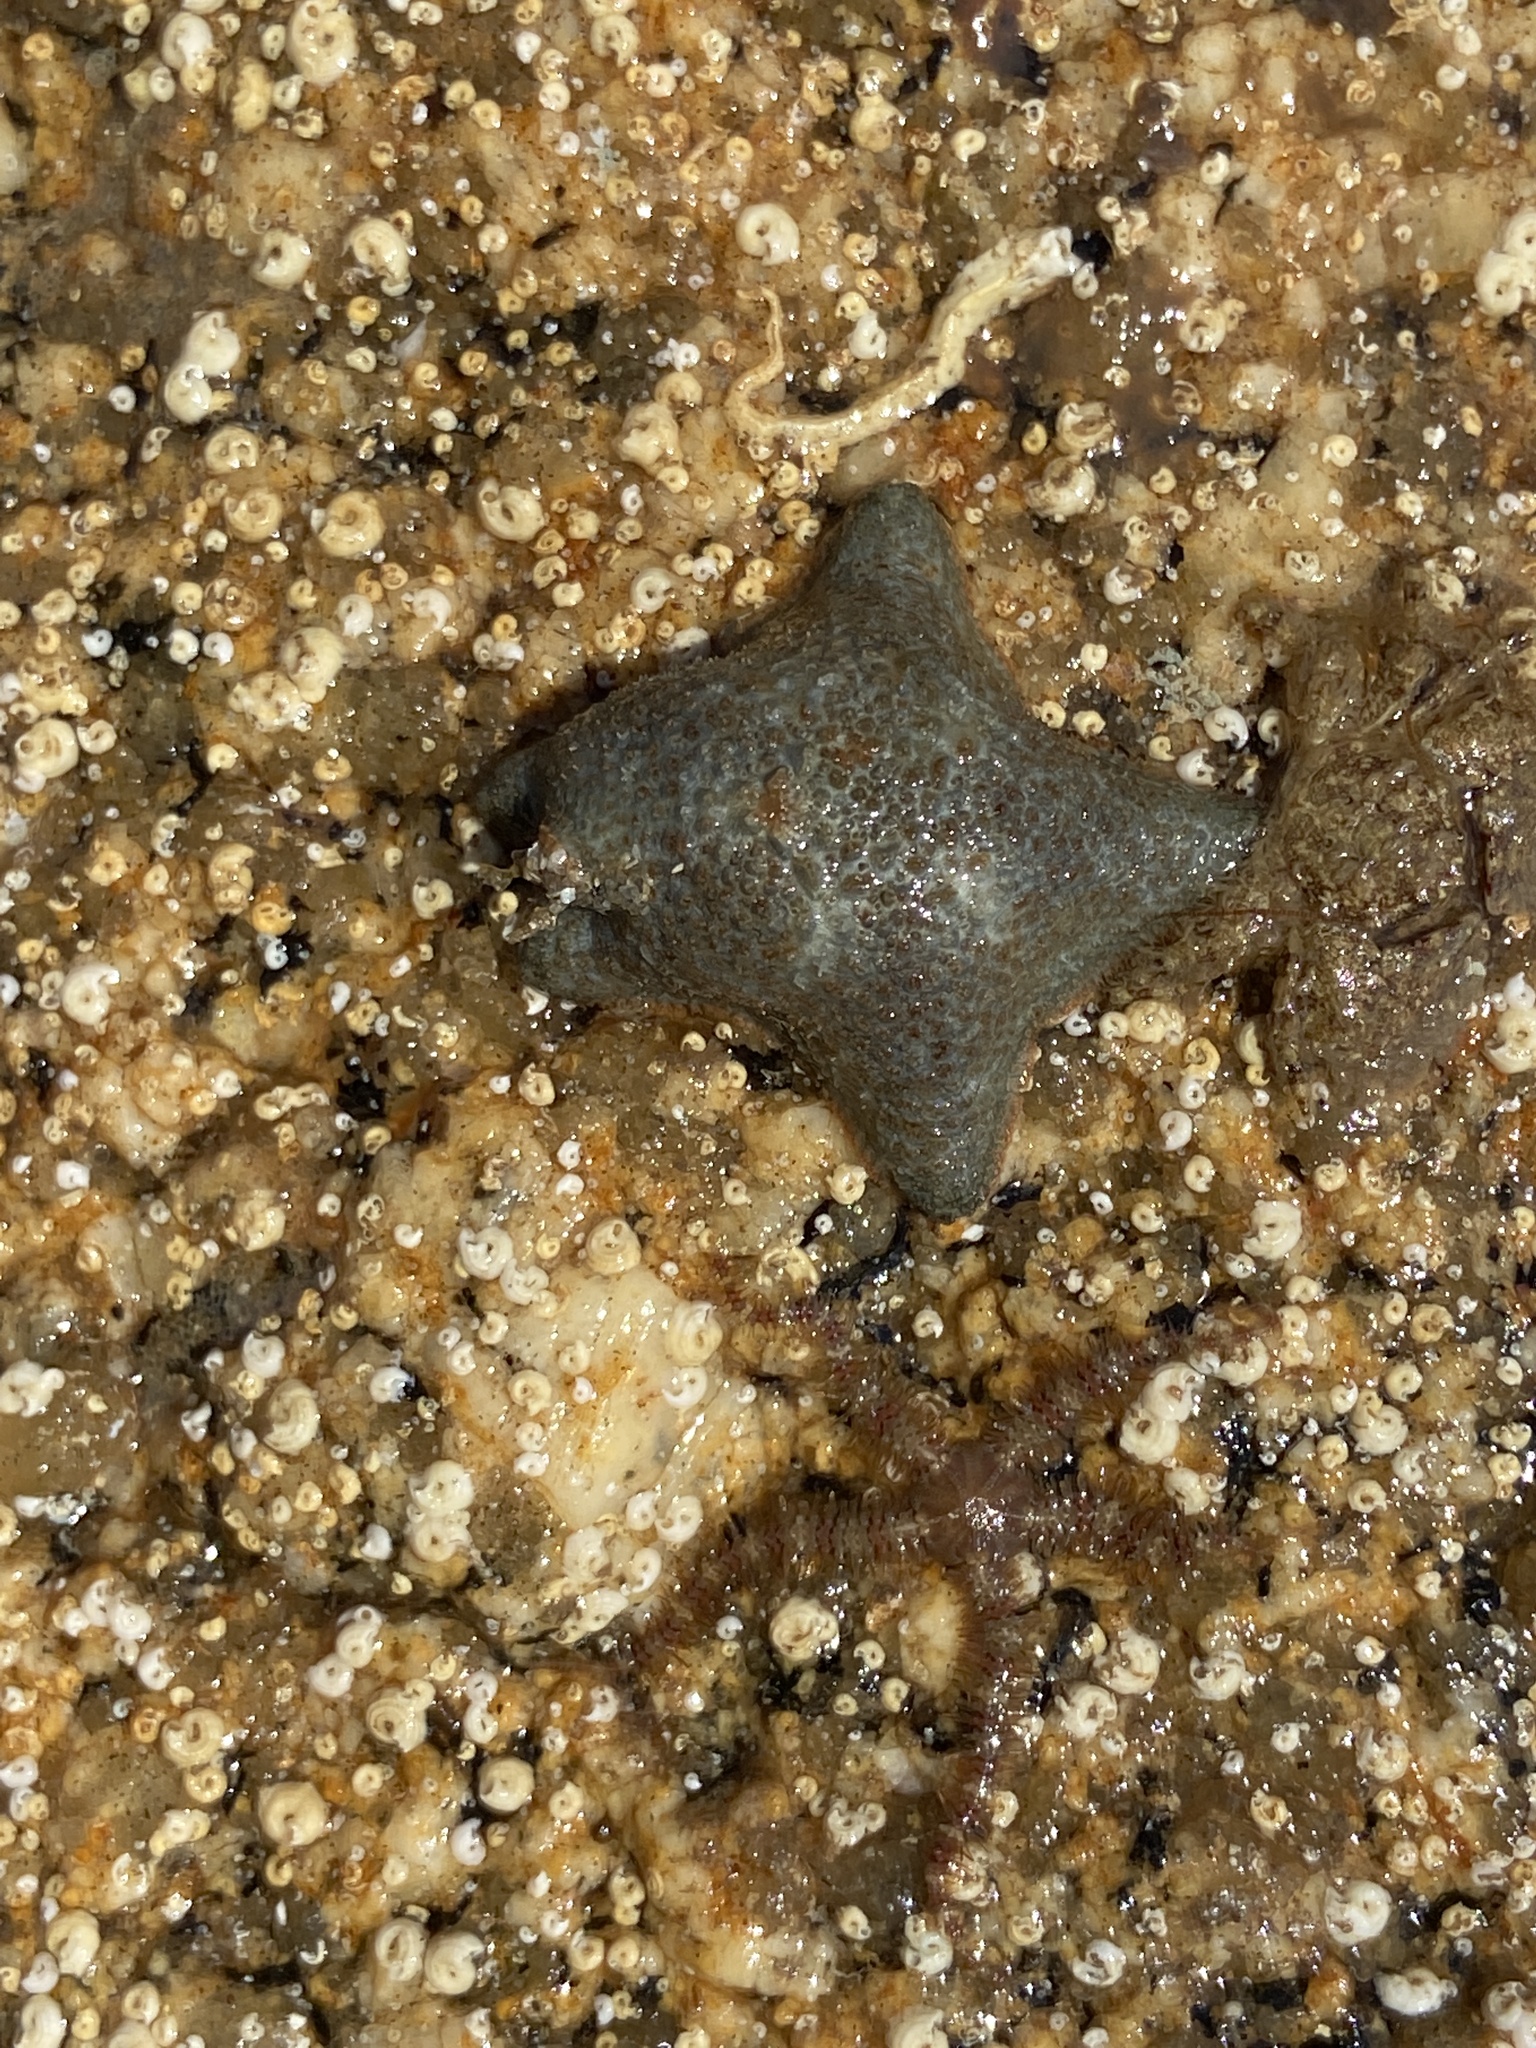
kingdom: Animalia
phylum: Echinodermata
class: Asteroidea
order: Valvatida
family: Asterinidae
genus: Asterina
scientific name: Asterina gibbosa
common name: Cushion star
